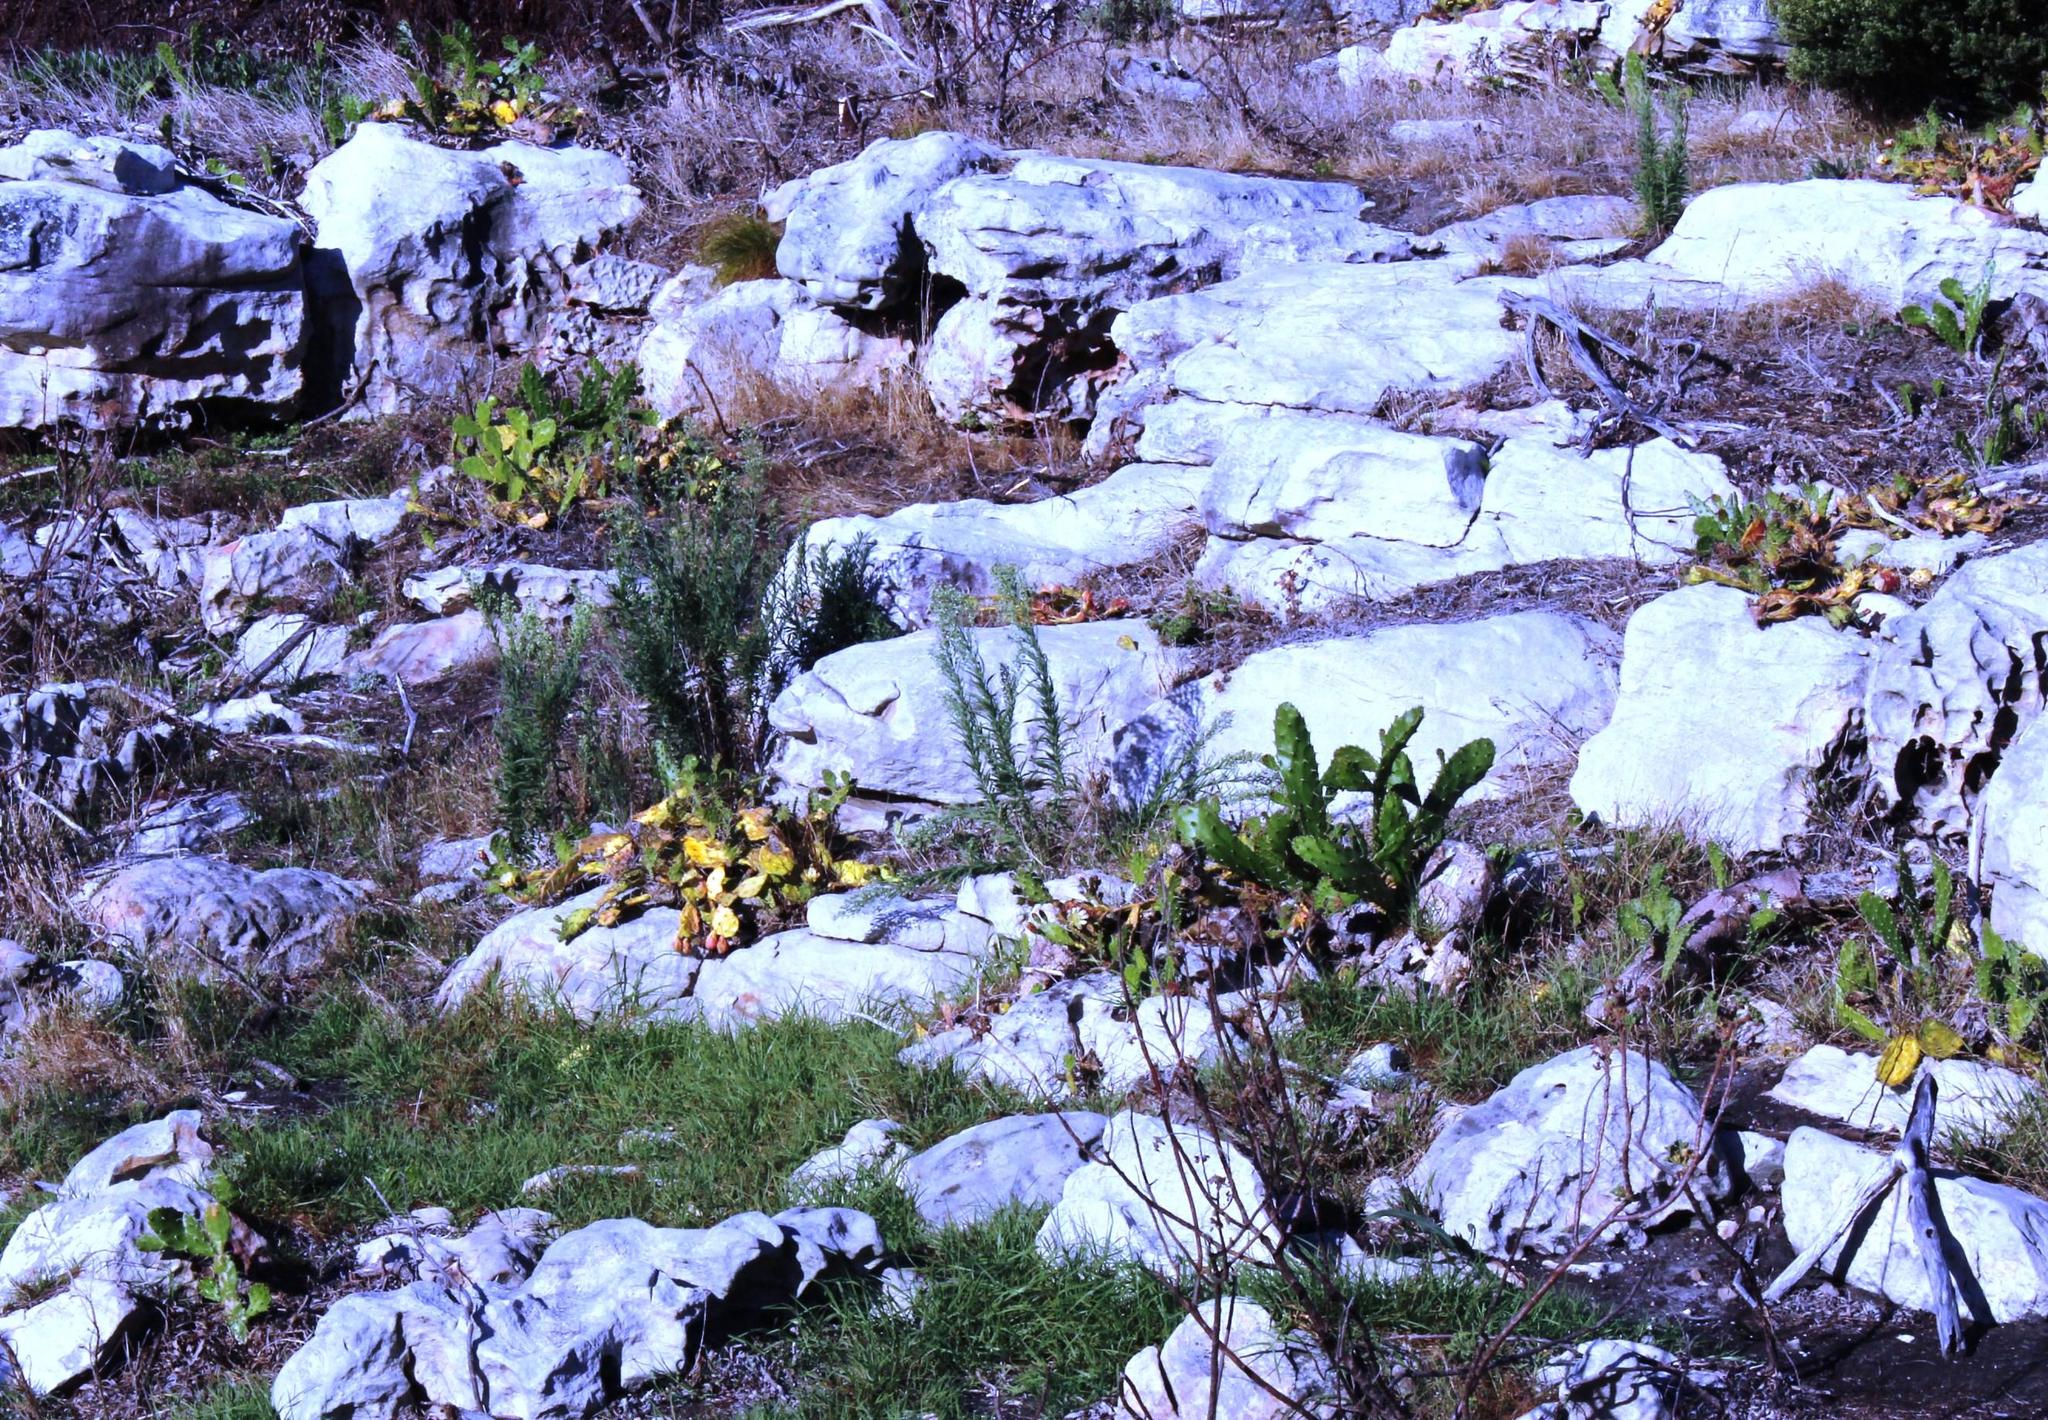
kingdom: Plantae
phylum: Tracheophyta
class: Magnoliopsida
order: Caryophyllales
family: Cactaceae
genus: Opuntia
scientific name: Opuntia monacantha
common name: Common pricklypear
